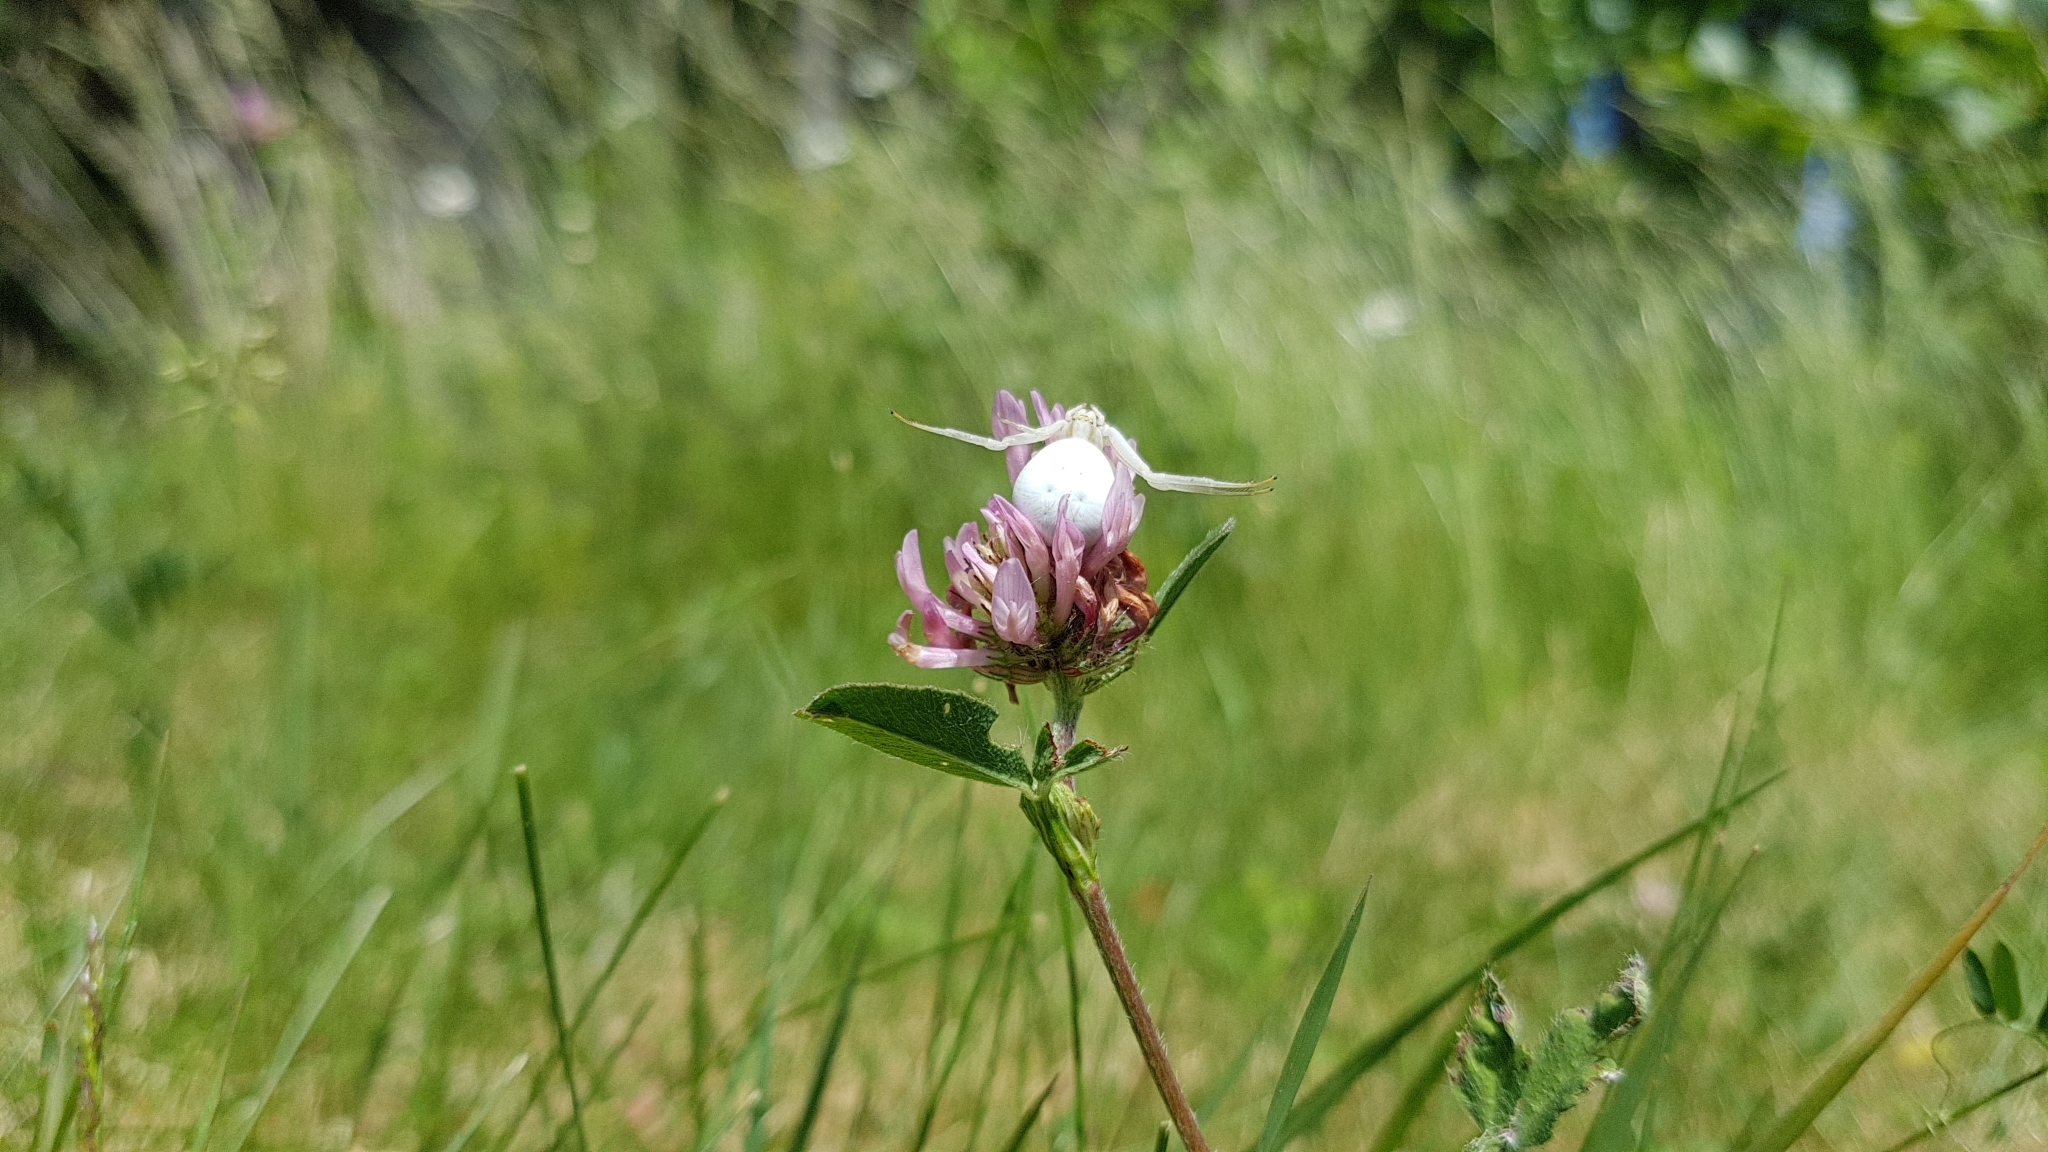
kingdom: Animalia
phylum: Arthropoda
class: Arachnida
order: Araneae
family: Thomisidae
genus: Misumena
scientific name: Misumena vatia
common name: Goldenrod crab spider
